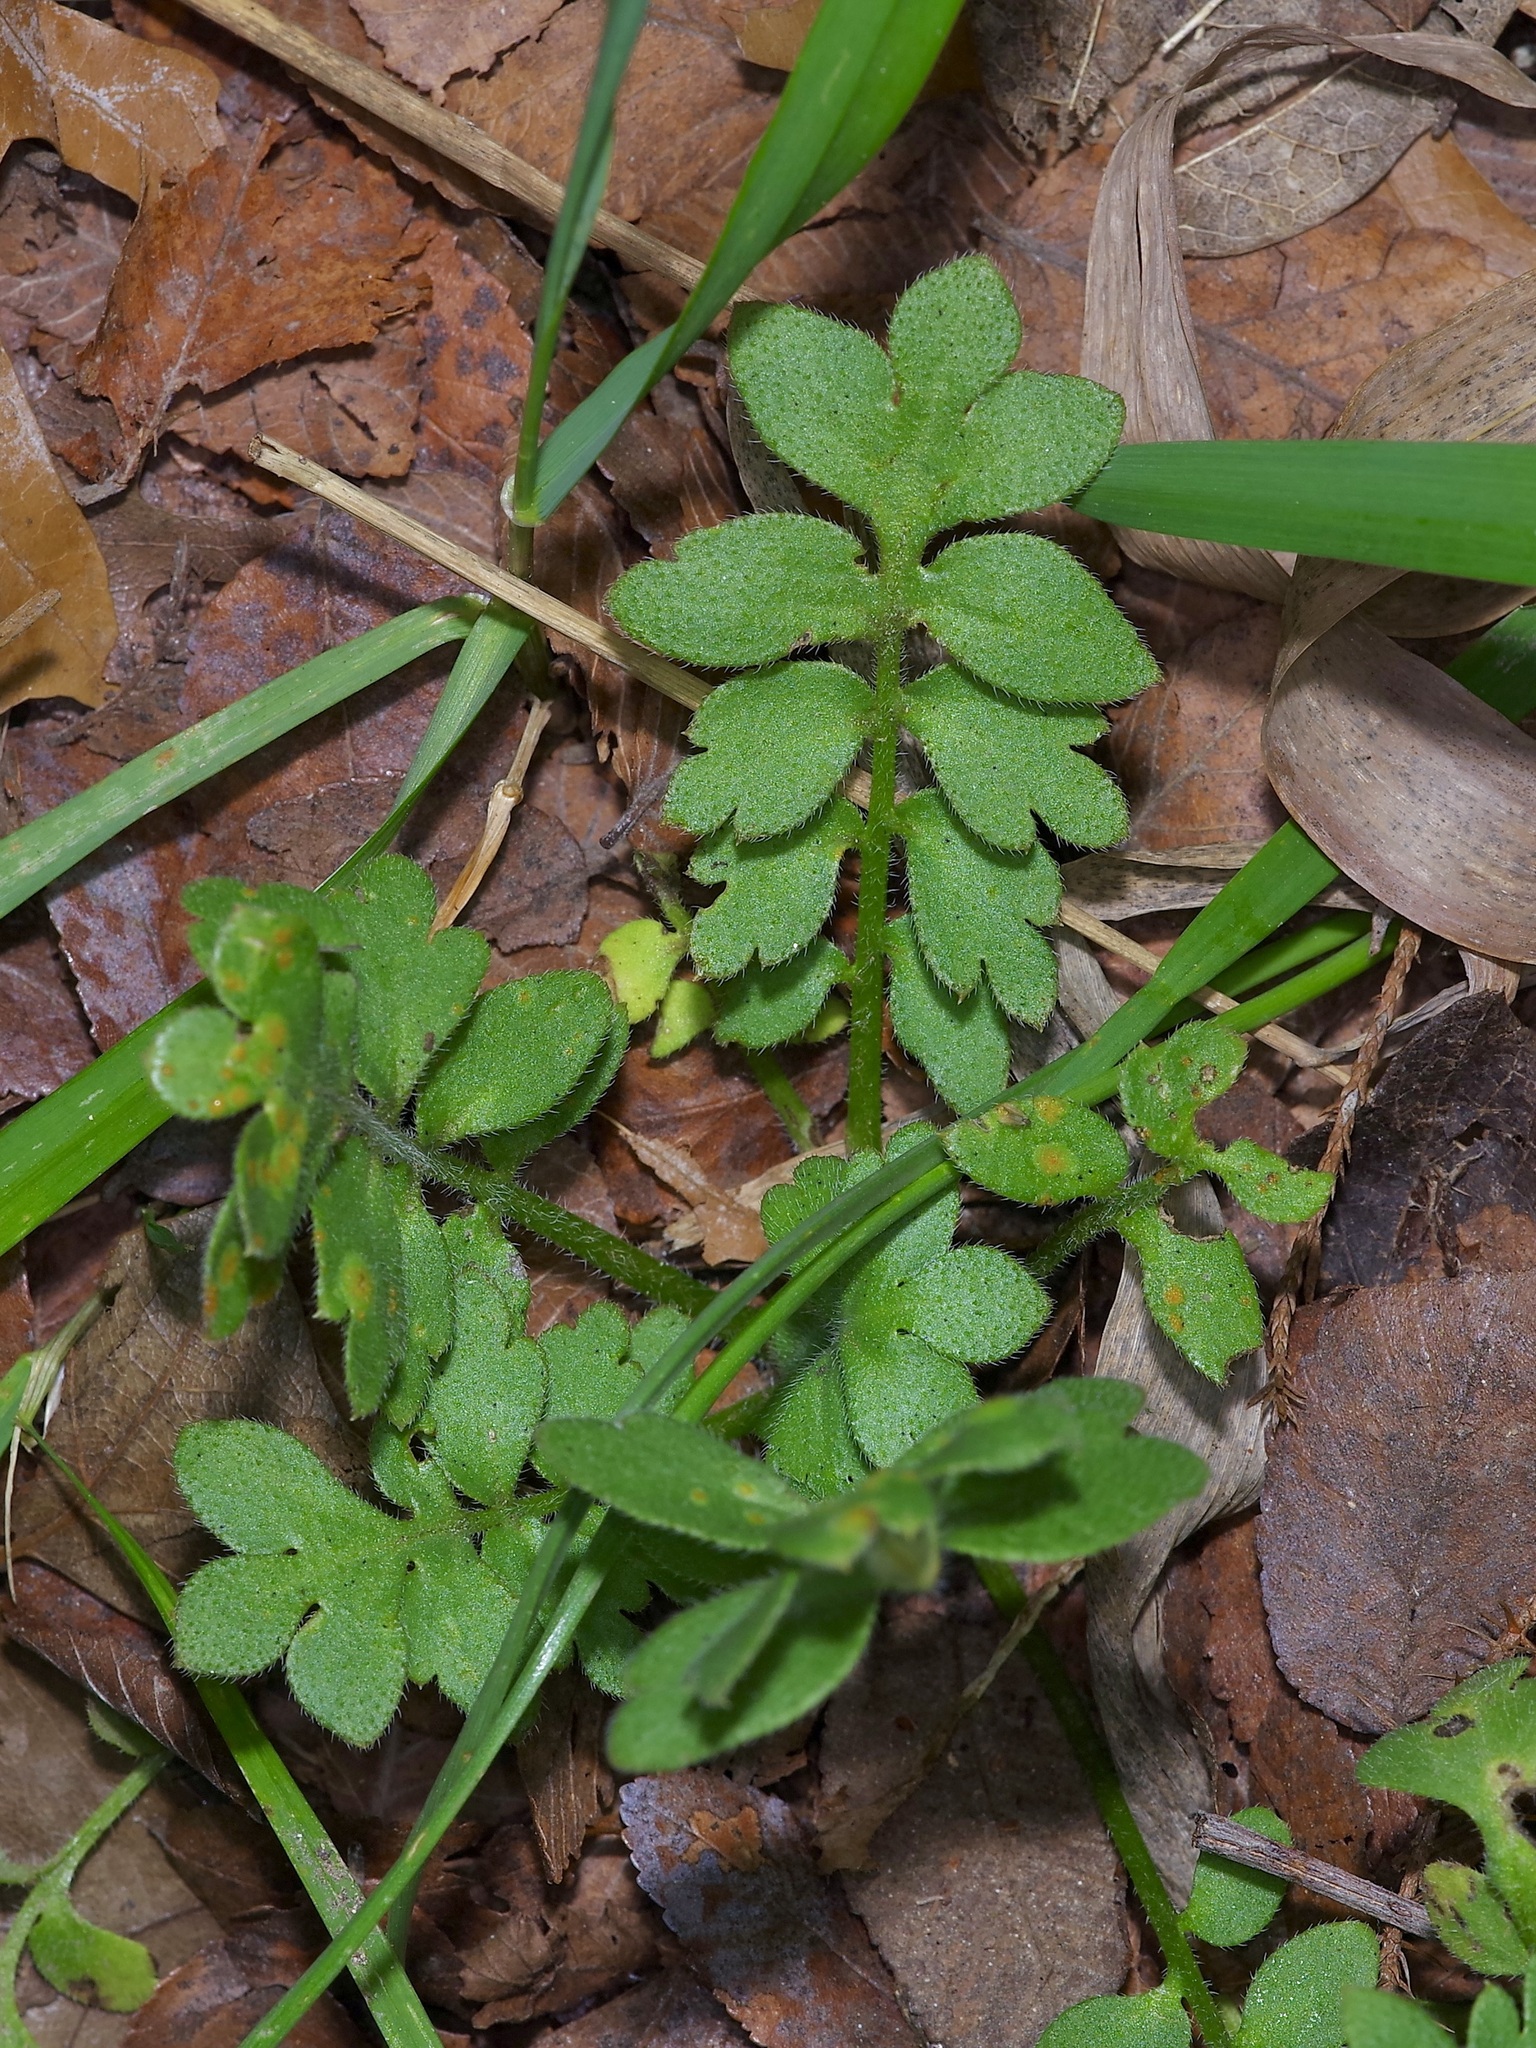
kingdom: Plantae
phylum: Tracheophyta
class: Magnoliopsida
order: Boraginales
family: Hydrophyllaceae
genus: Nemophila
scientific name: Nemophila phacelioides
